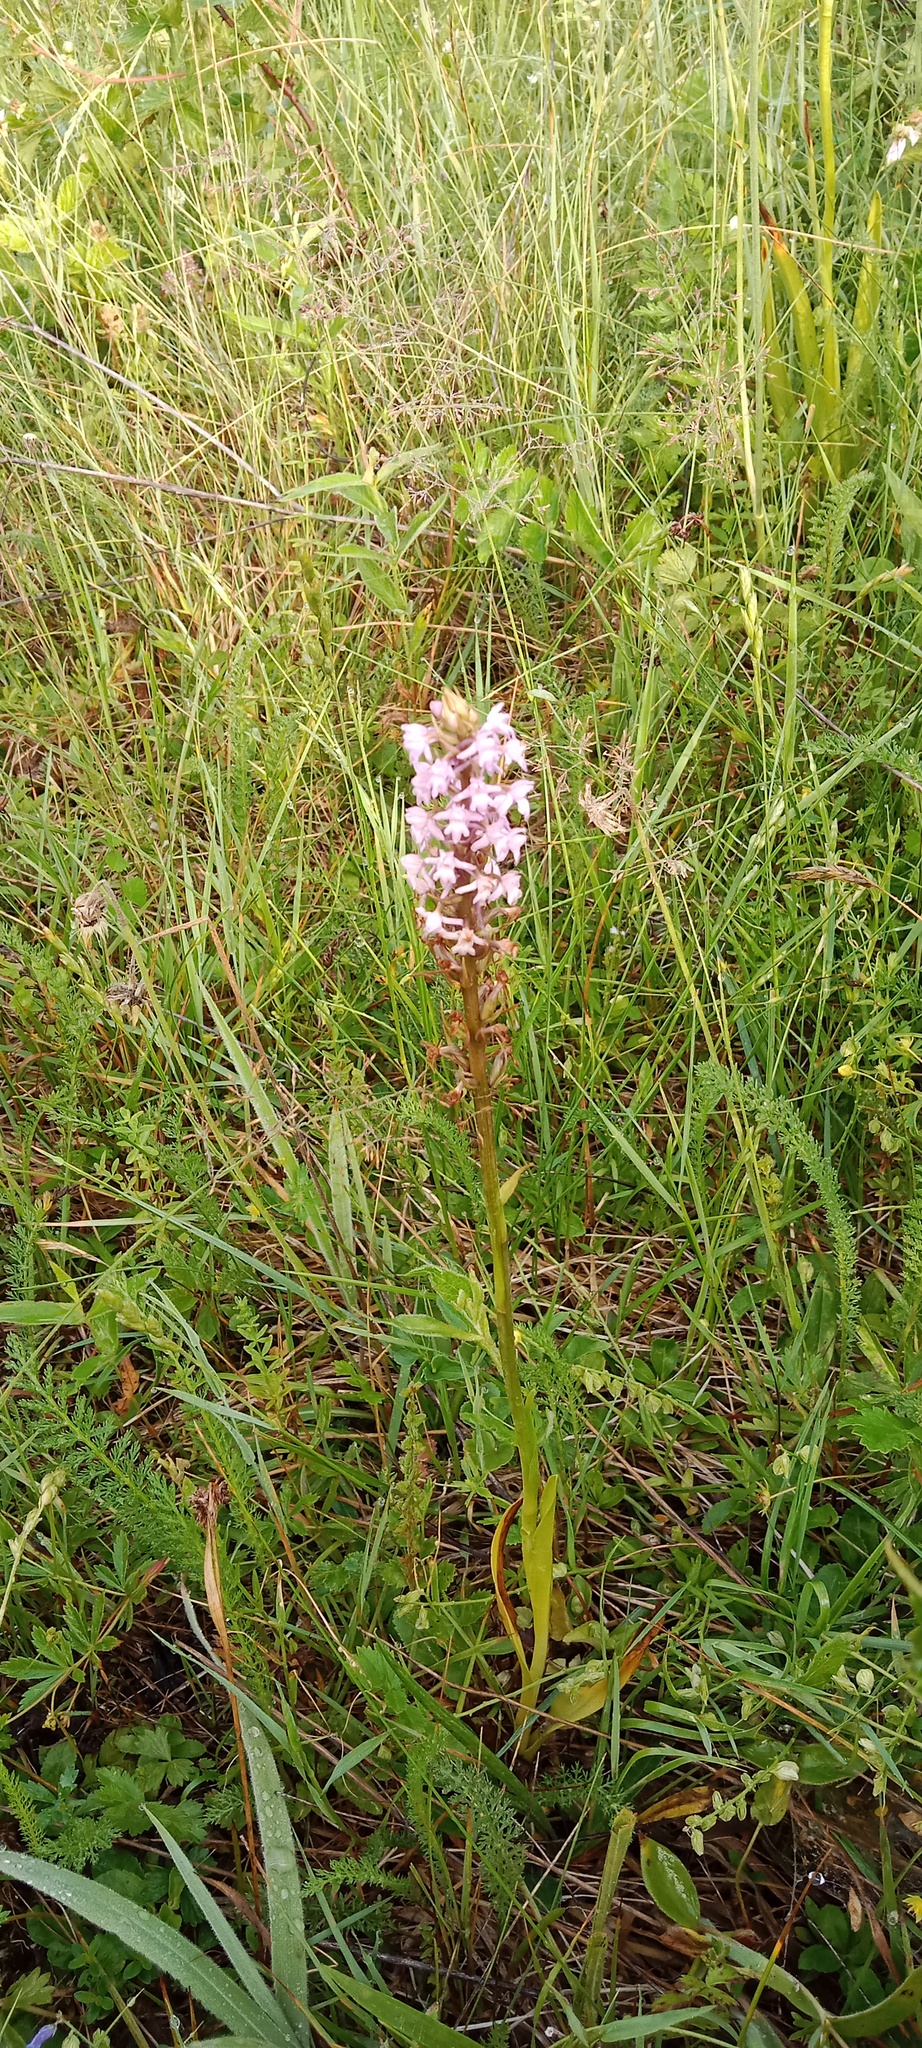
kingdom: Plantae
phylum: Tracheophyta
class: Liliopsida
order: Asparagales
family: Orchidaceae
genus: Gymnadenia
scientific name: Gymnadenia conopsea
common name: Fragrant orchid
